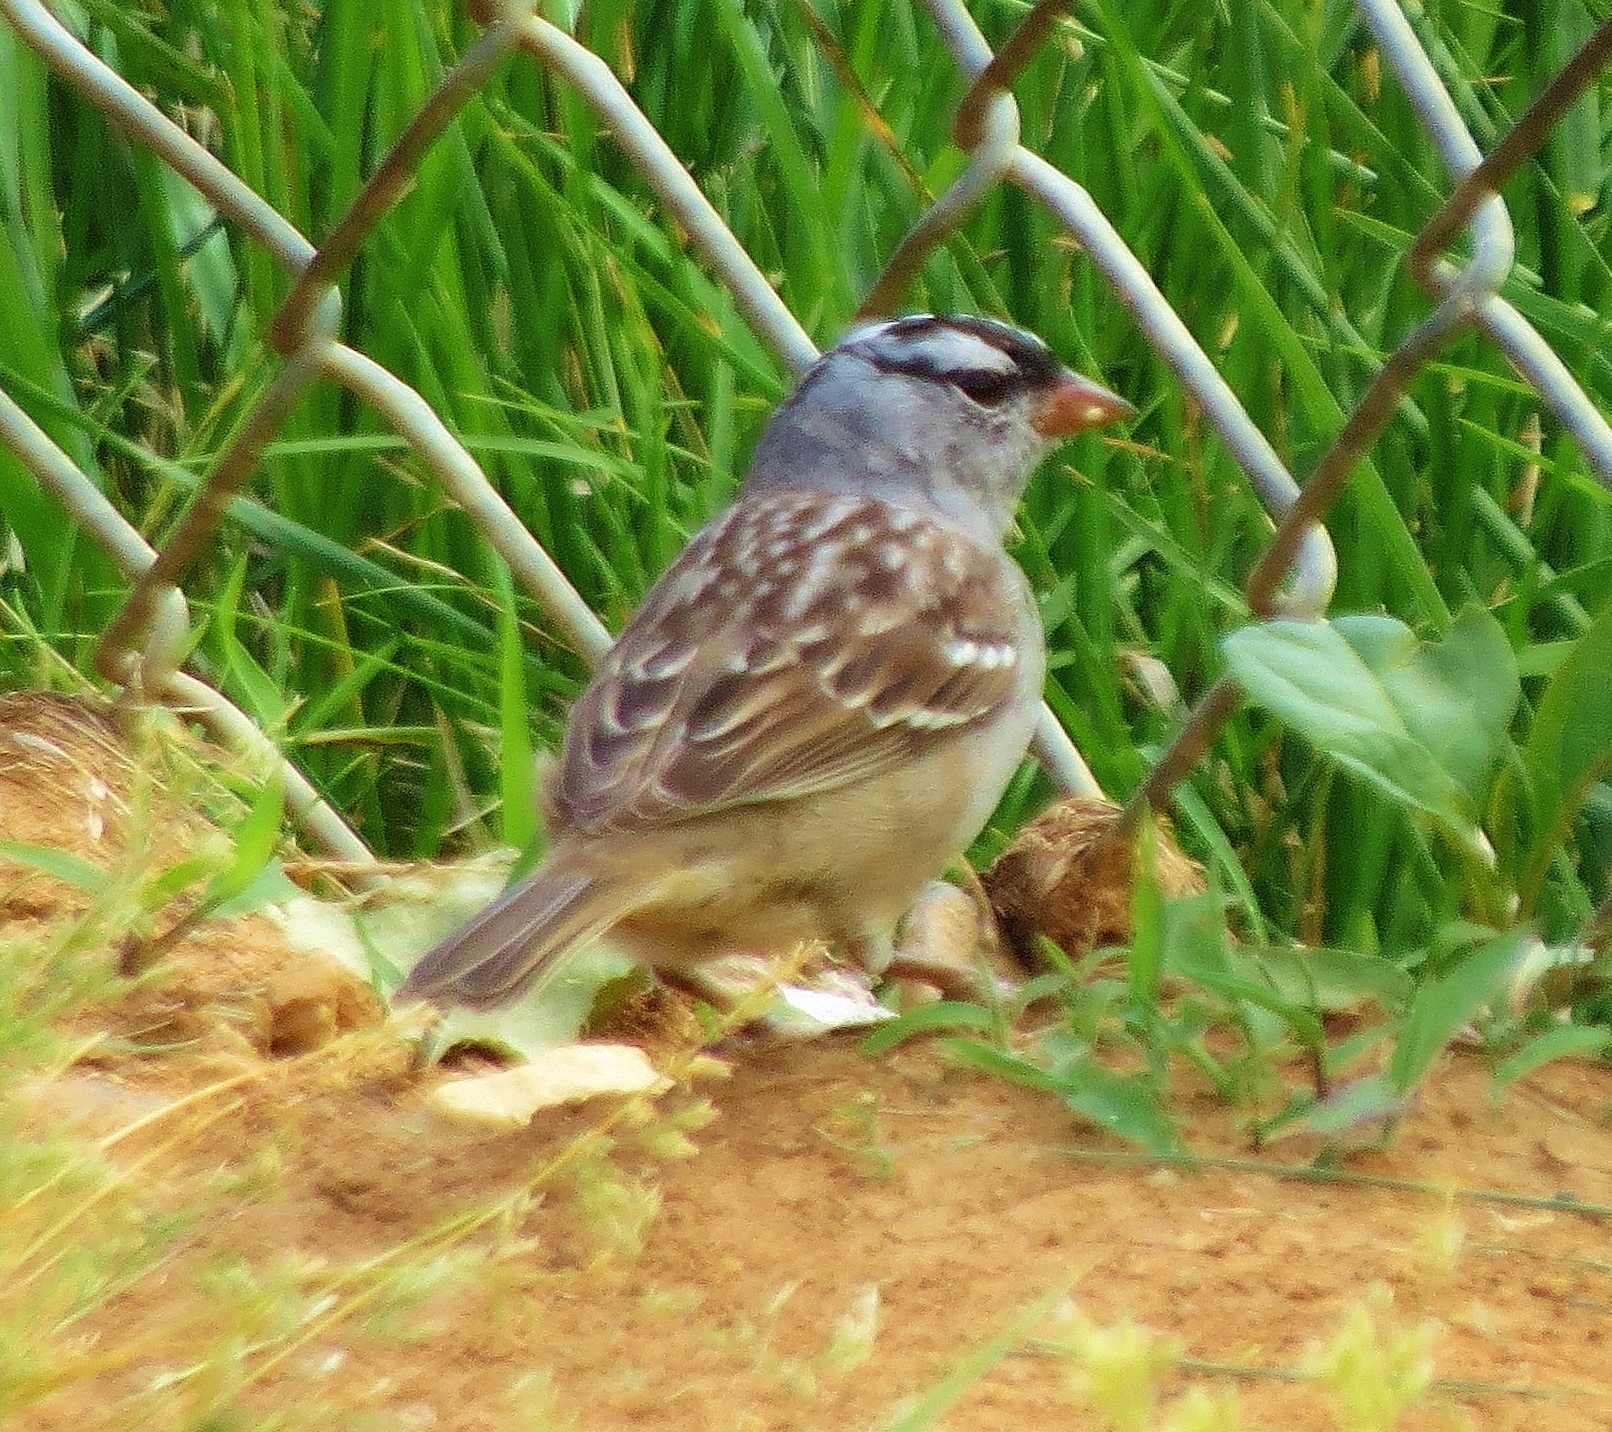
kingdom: Animalia
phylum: Chordata
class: Aves
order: Passeriformes
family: Passerellidae
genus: Zonotrichia
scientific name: Zonotrichia leucophrys
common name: White-crowned sparrow
